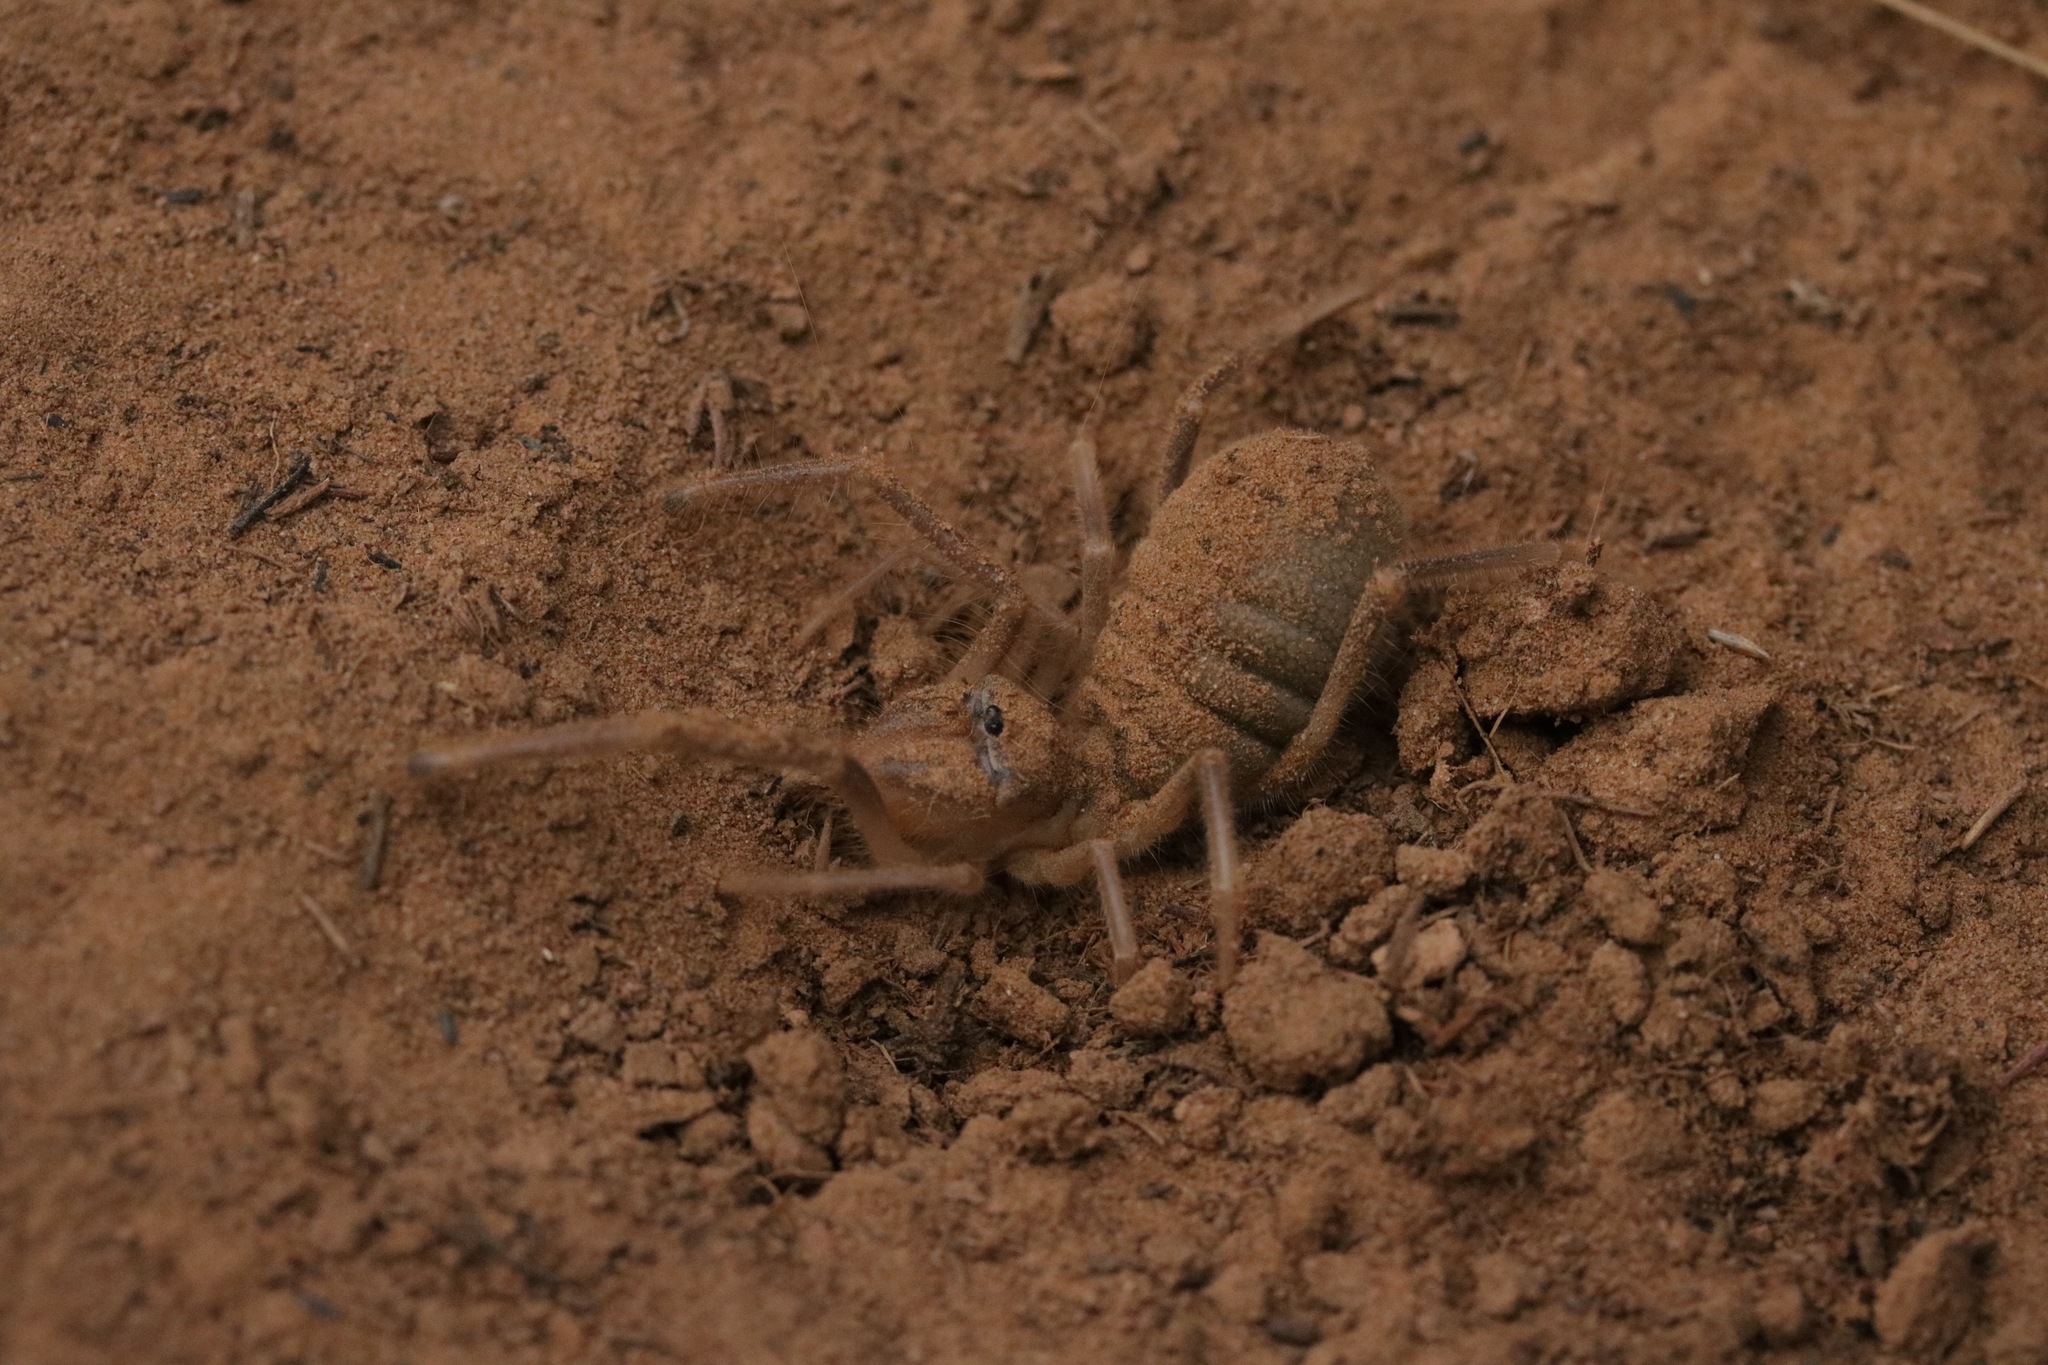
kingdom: Animalia
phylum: Arthropoda
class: Arachnida
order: Solifugae
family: Galeodidae
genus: Galeodes
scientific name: Galeodes araneoides
